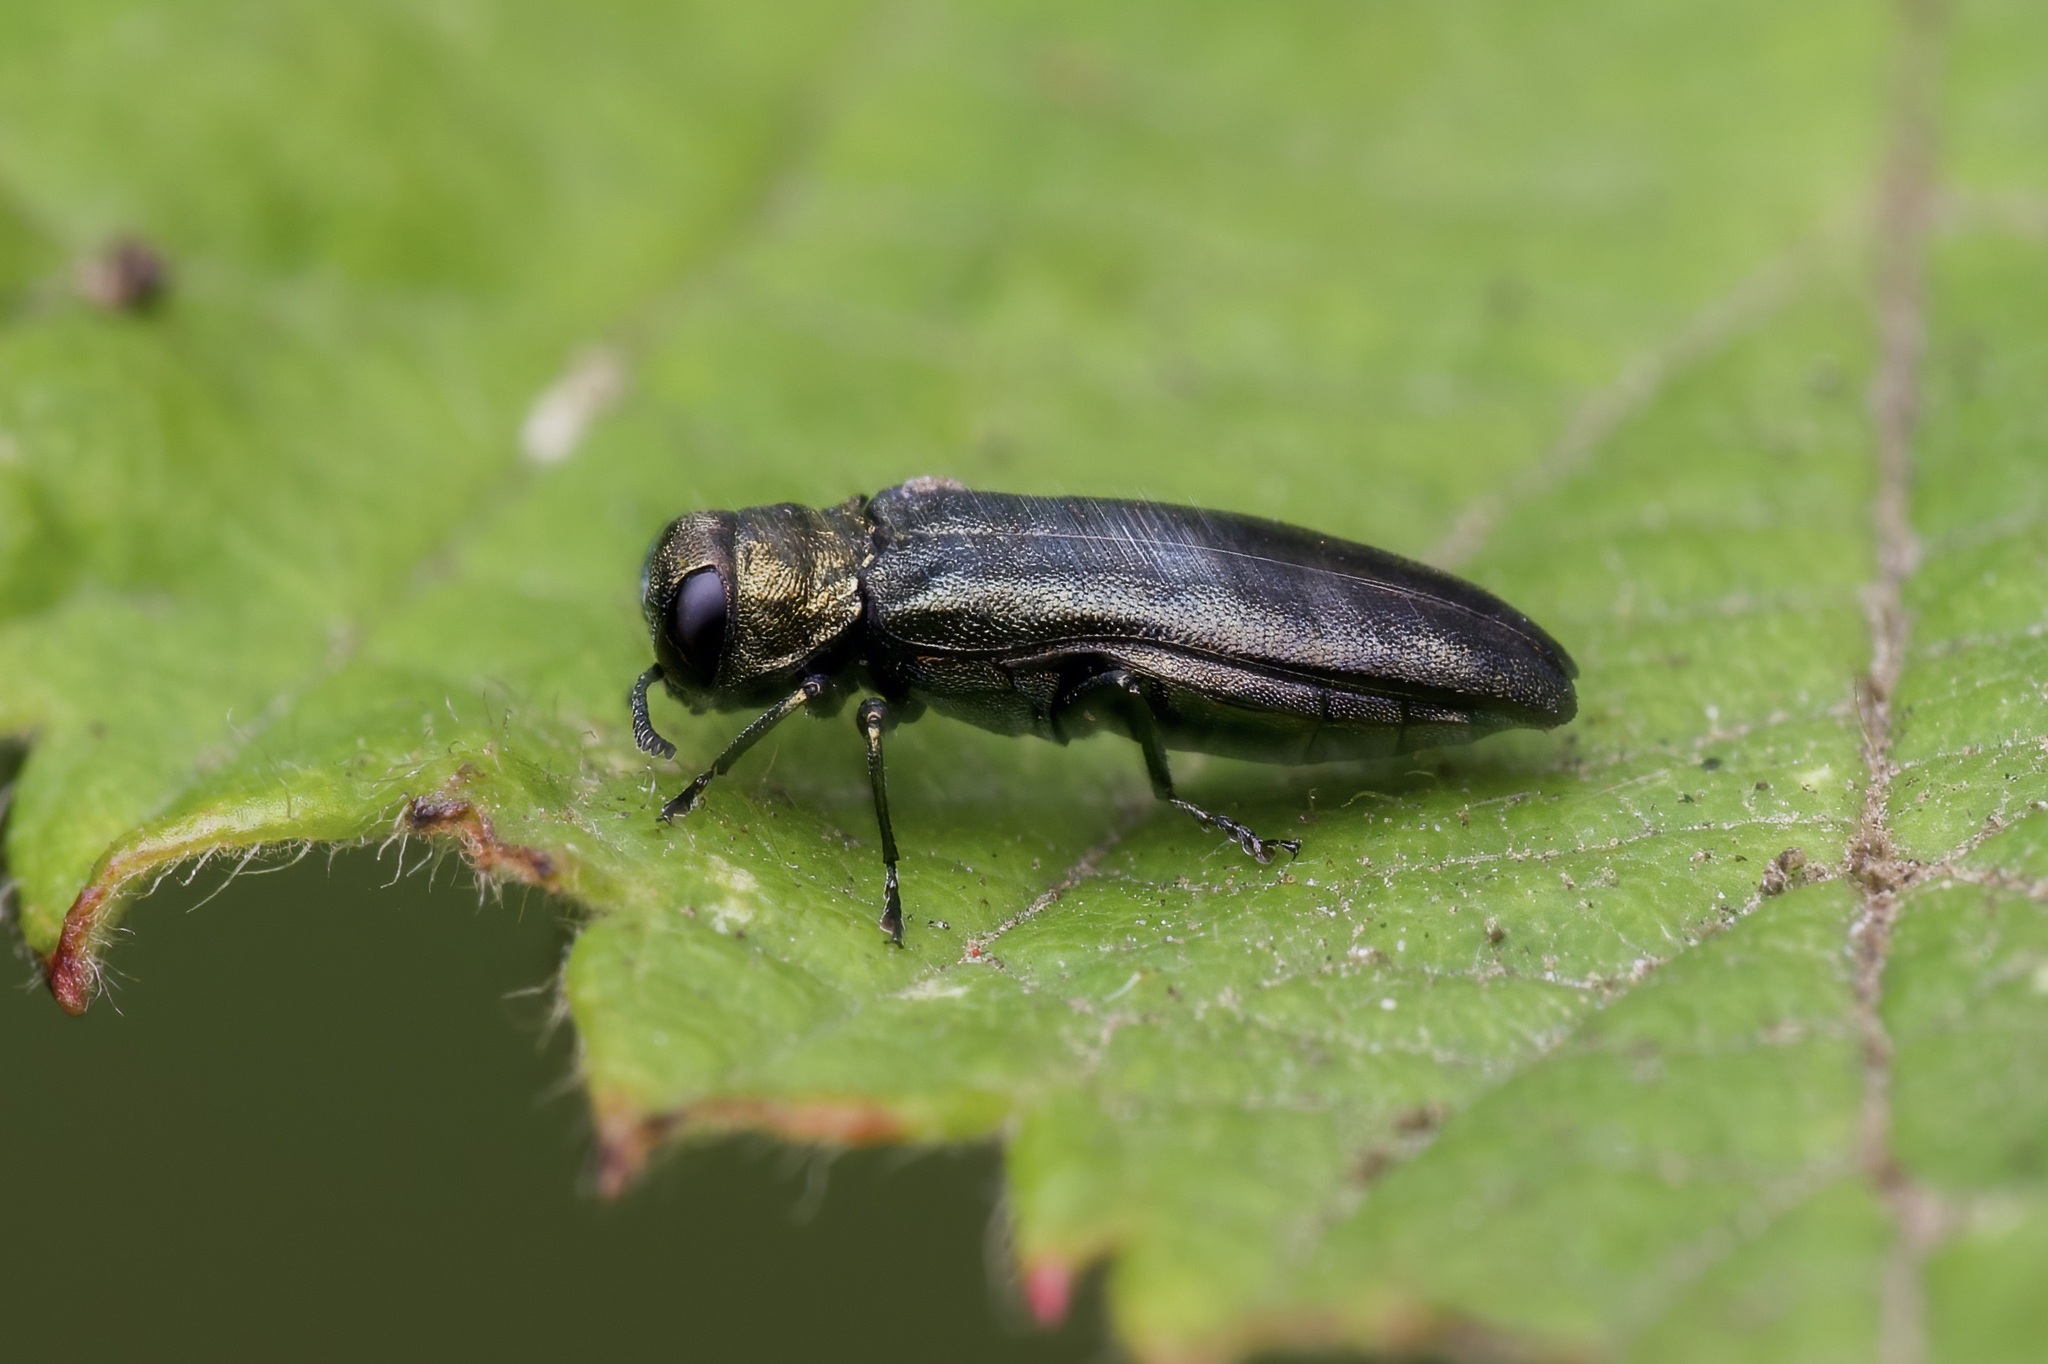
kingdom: Animalia
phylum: Arthropoda
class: Insecta
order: Coleoptera
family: Buprestidae
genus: Agrilus
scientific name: Agrilus cuprescens
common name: Rose stem girdler
